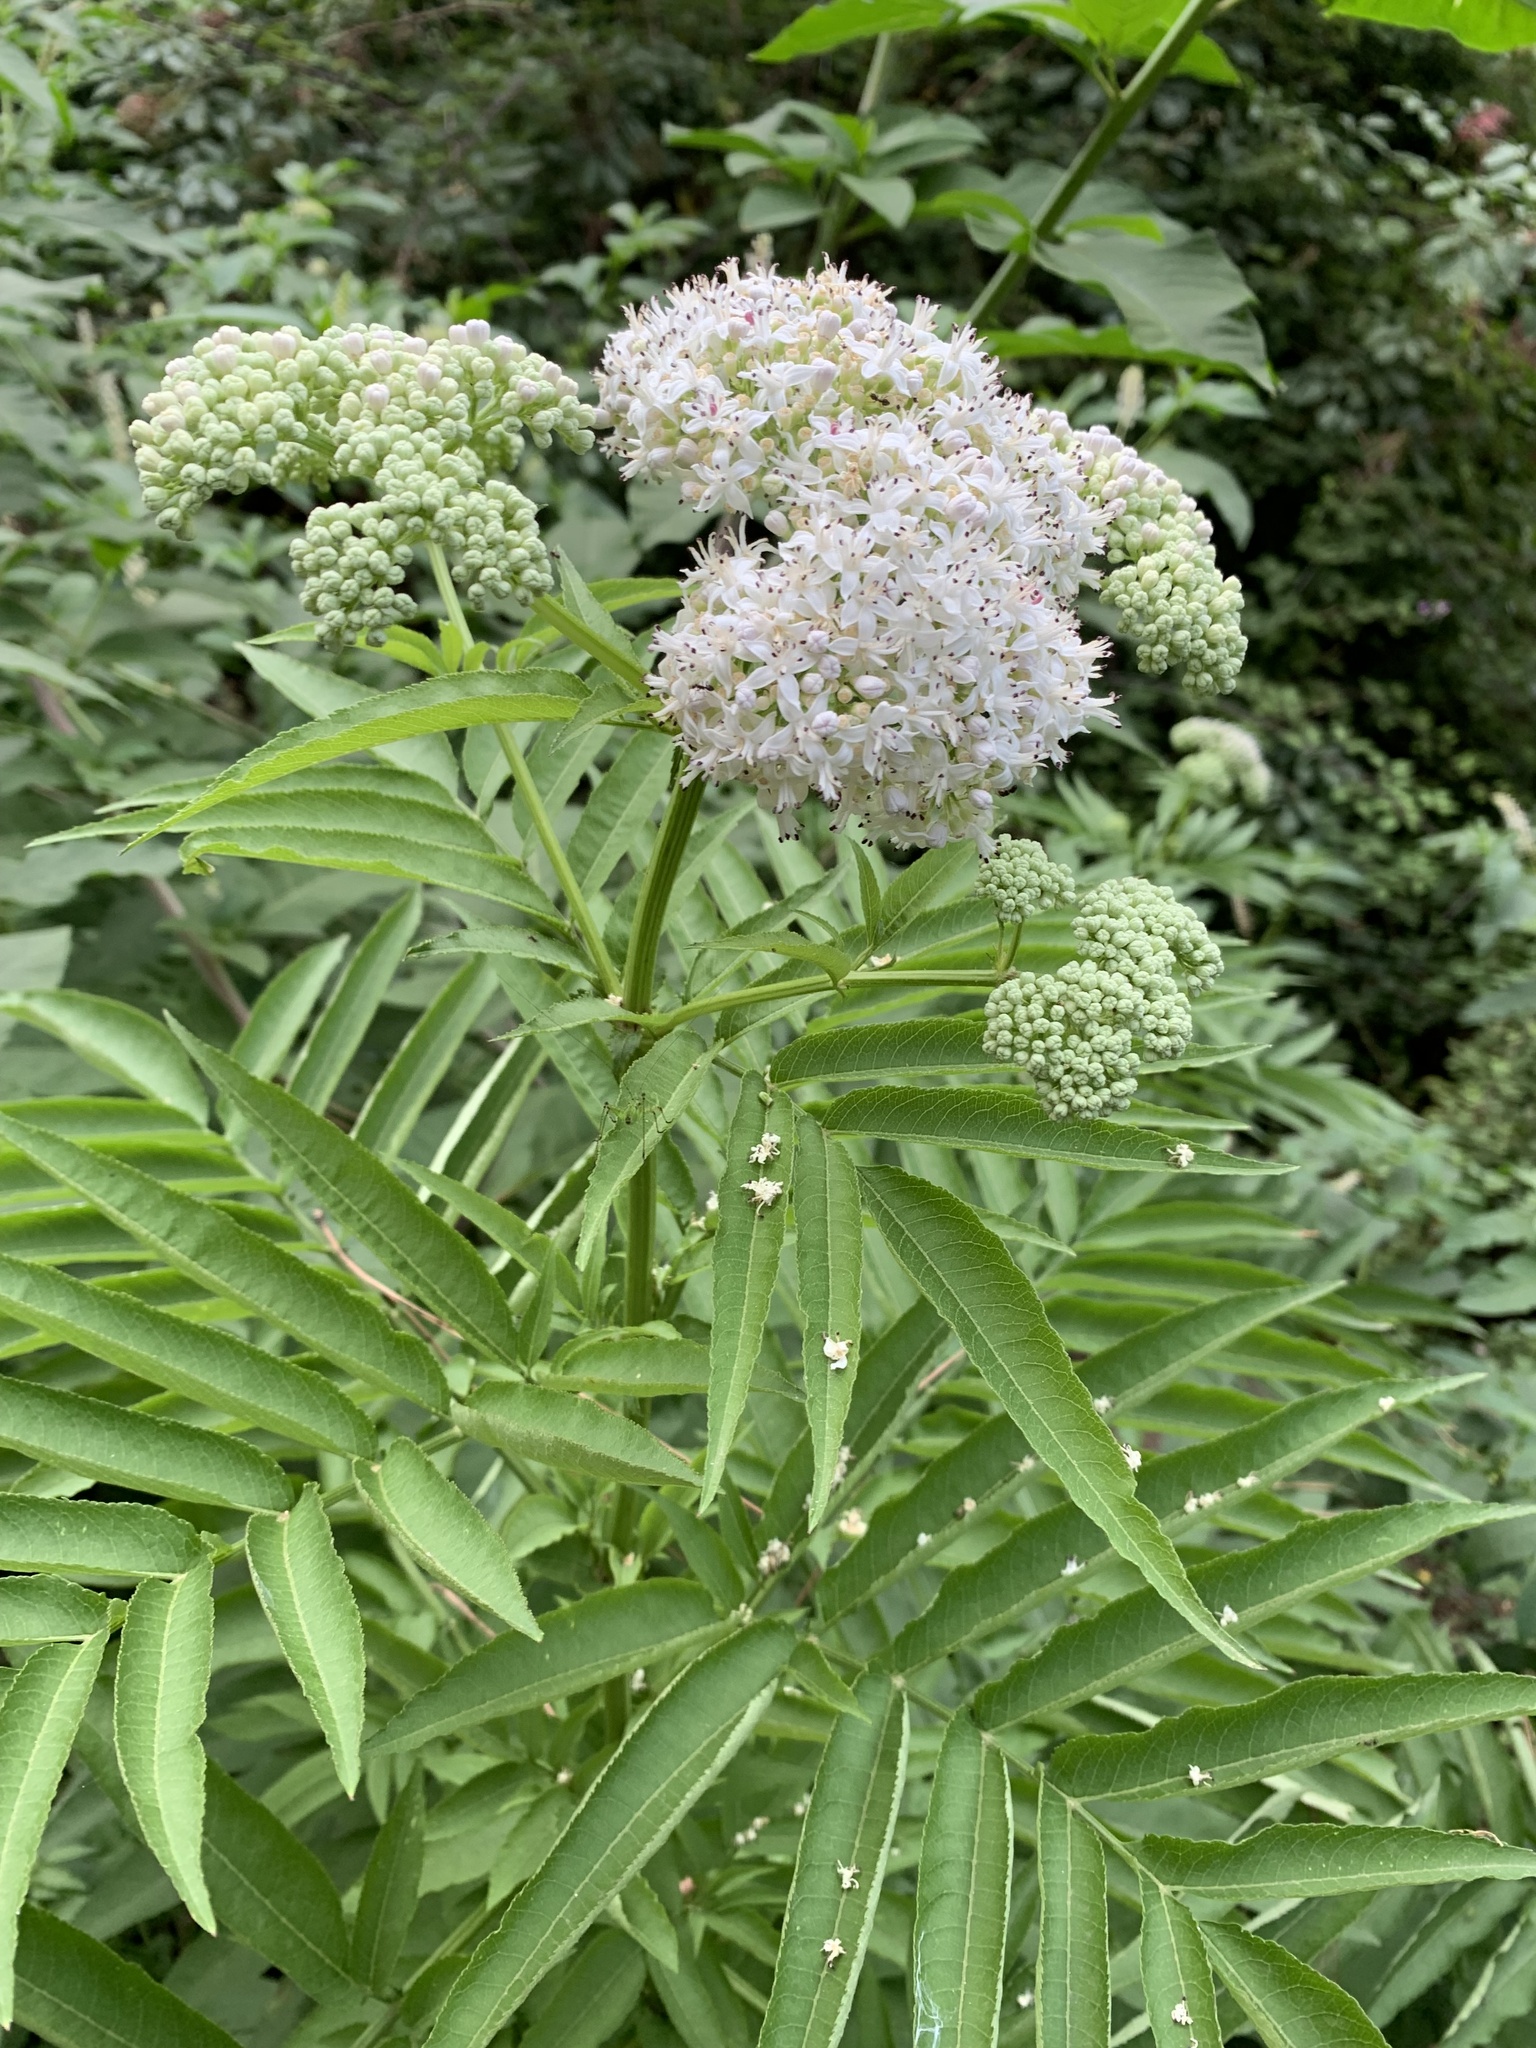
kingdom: Plantae
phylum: Tracheophyta
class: Magnoliopsida
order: Dipsacales
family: Viburnaceae
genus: Sambucus
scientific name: Sambucus ebulus
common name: Dwarf elder
